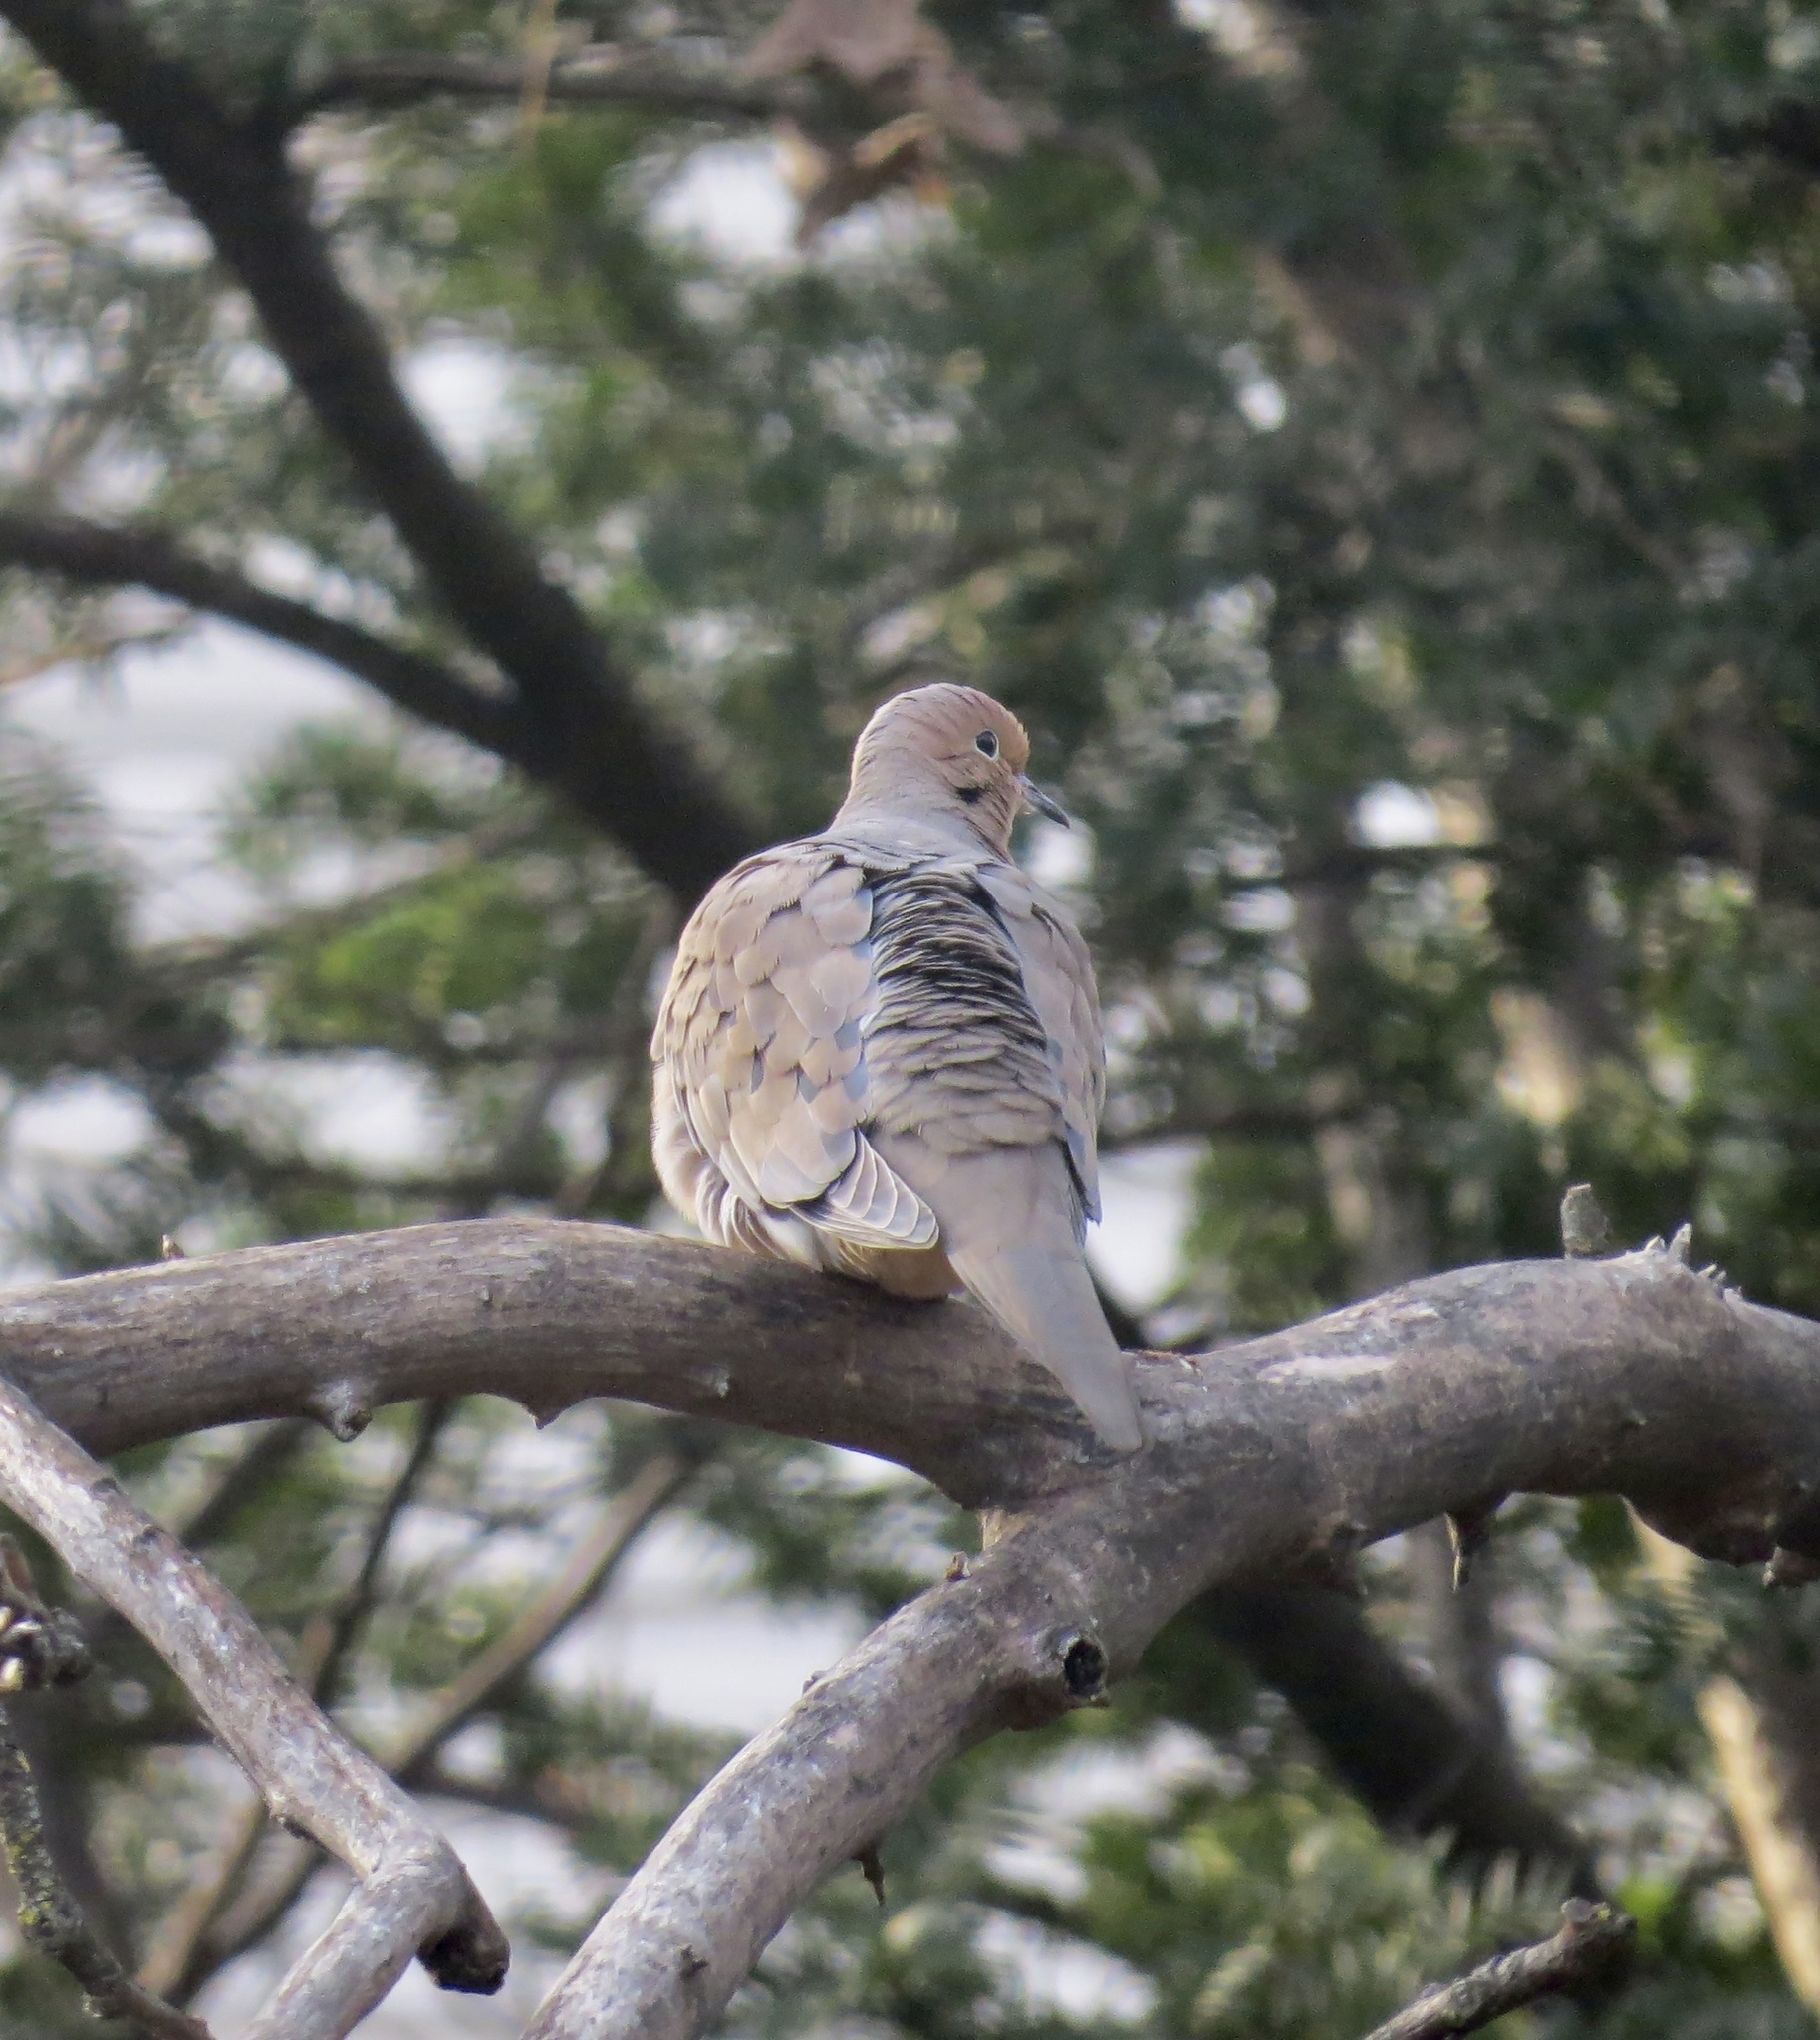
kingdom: Animalia
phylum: Chordata
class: Aves
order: Columbiformes
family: Columbidae
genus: Zenaida
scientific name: Zenaida macroura
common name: Mourning dove
